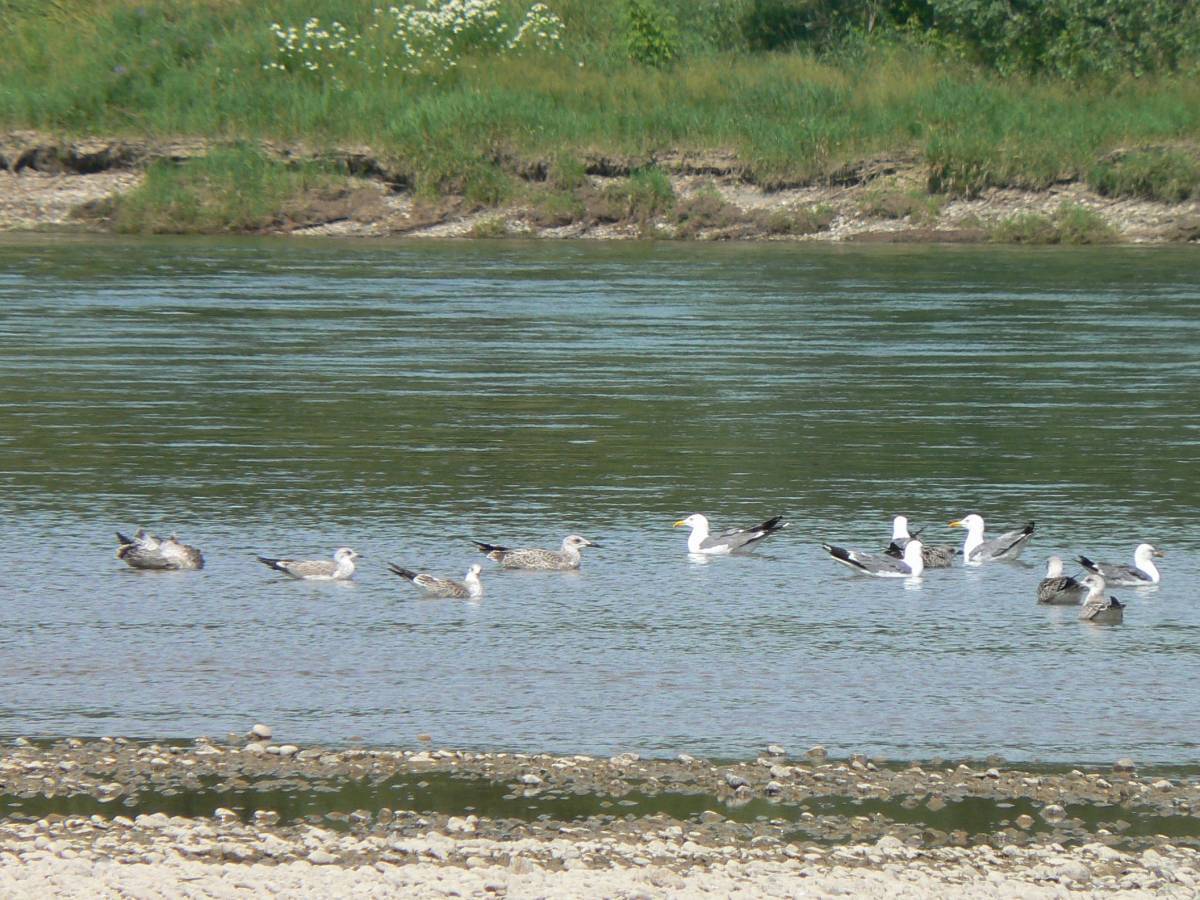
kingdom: Animalia
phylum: Chordata
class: Aves
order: Charadriiformes
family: Laridae
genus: Larus
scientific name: Larus fuscus
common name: Lesser black-backed gull
